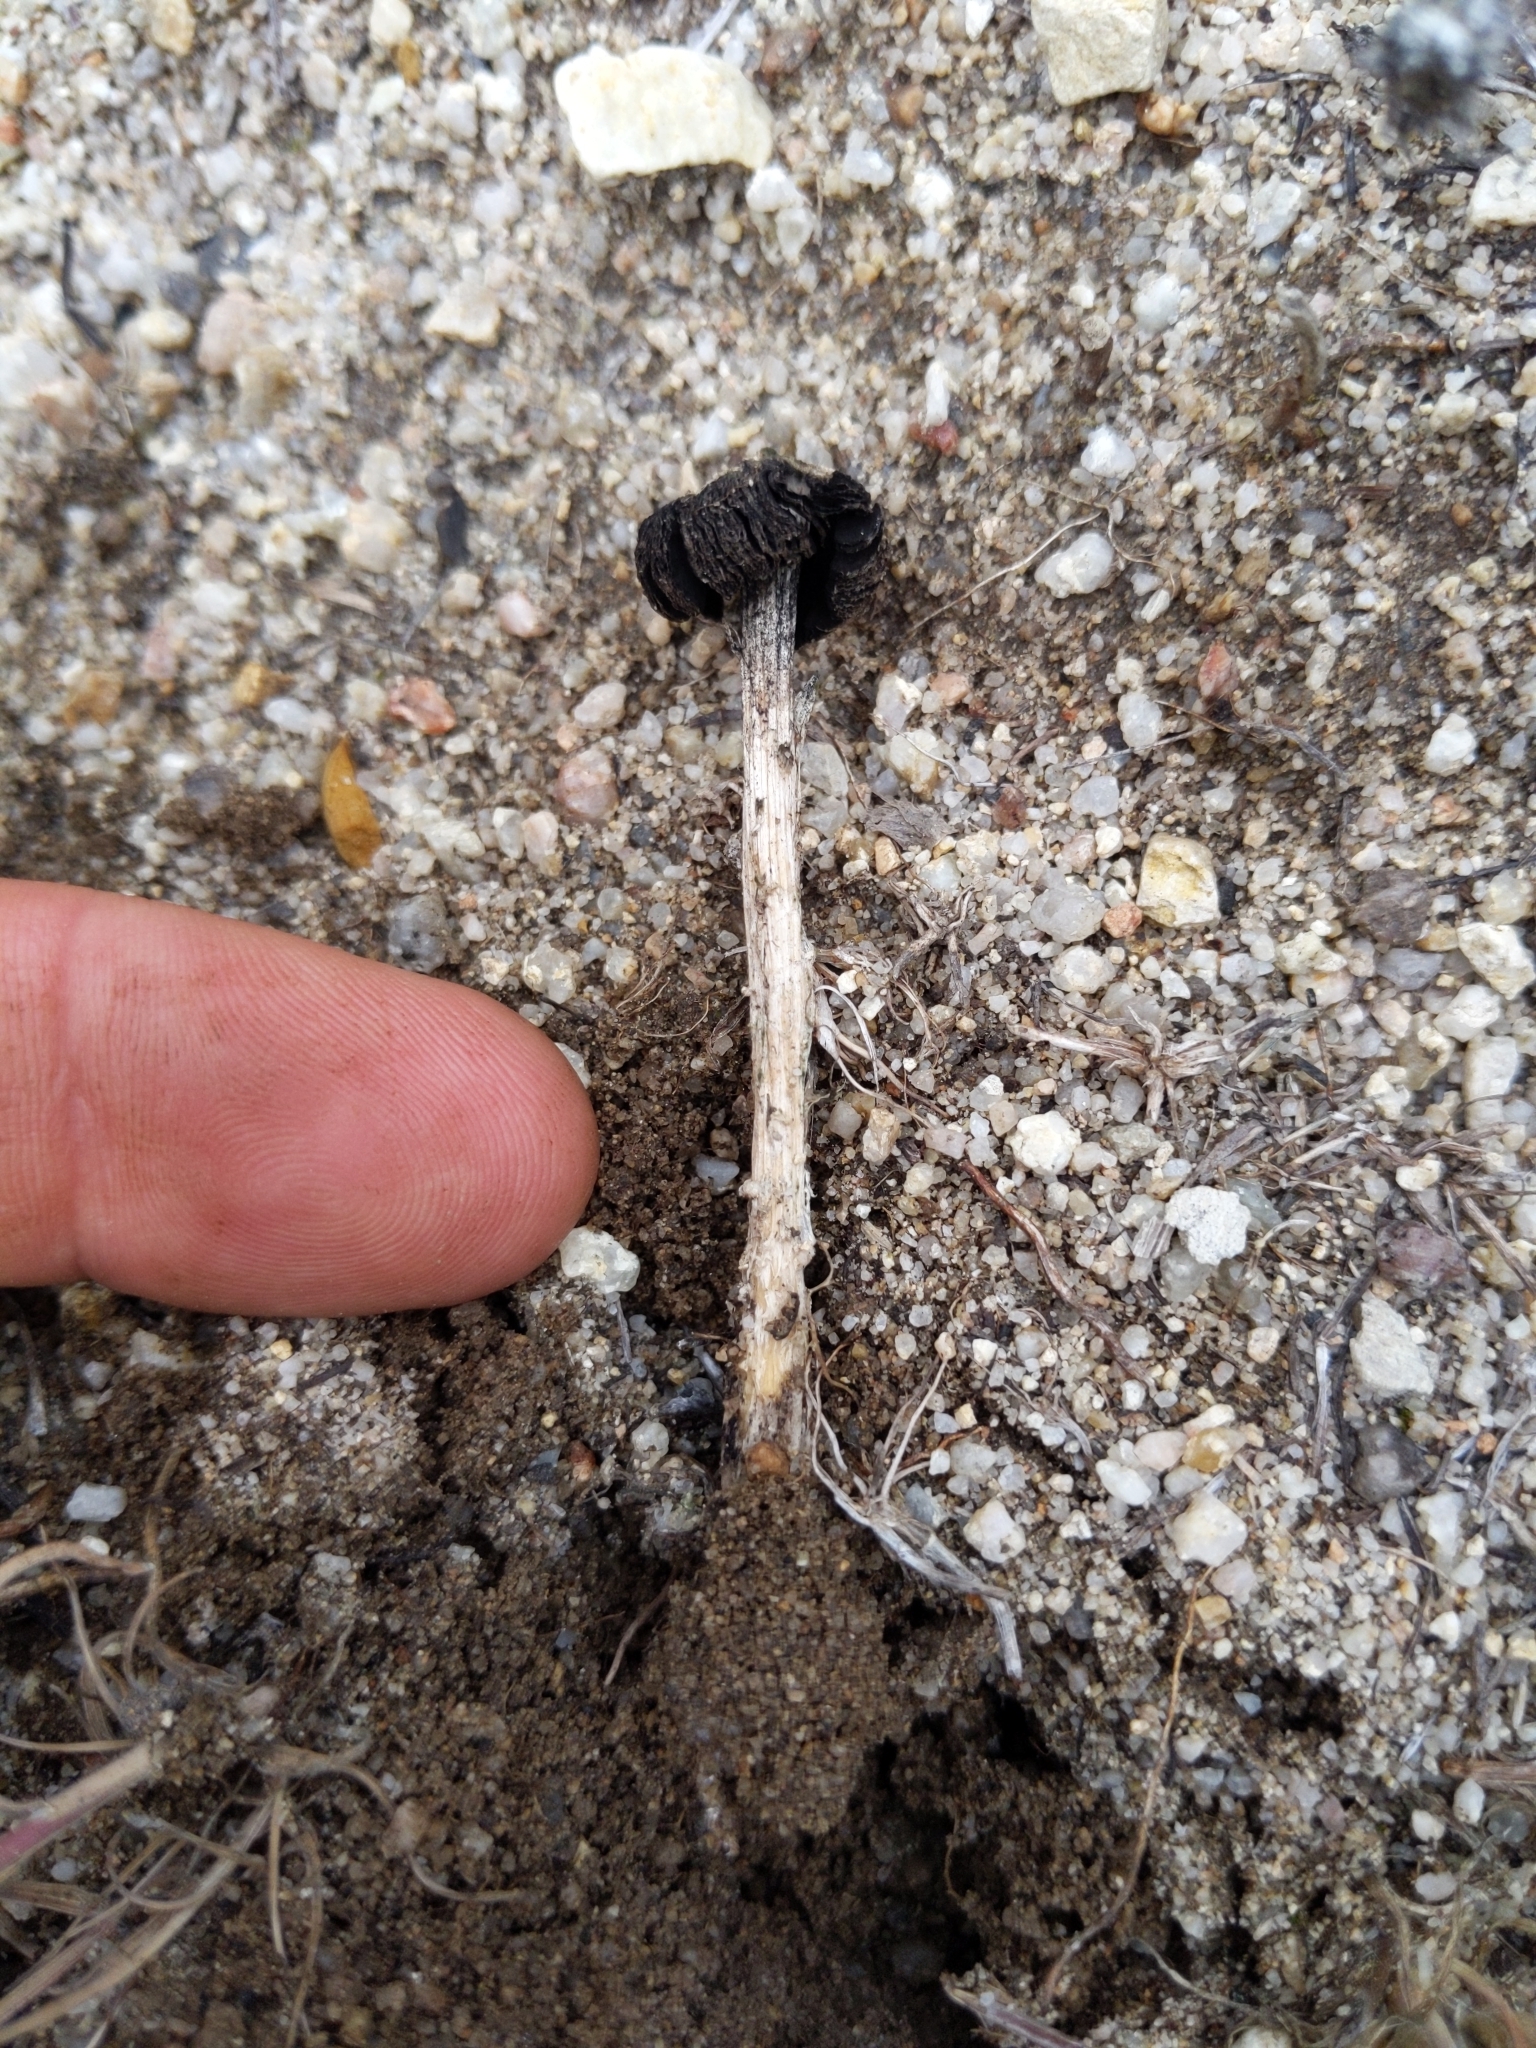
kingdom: Fungi
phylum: Basidiomycota
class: Agaricomycetes
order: Agaricales
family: Agaricaceae
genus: Montagnea
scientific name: Montagnea arenaria
